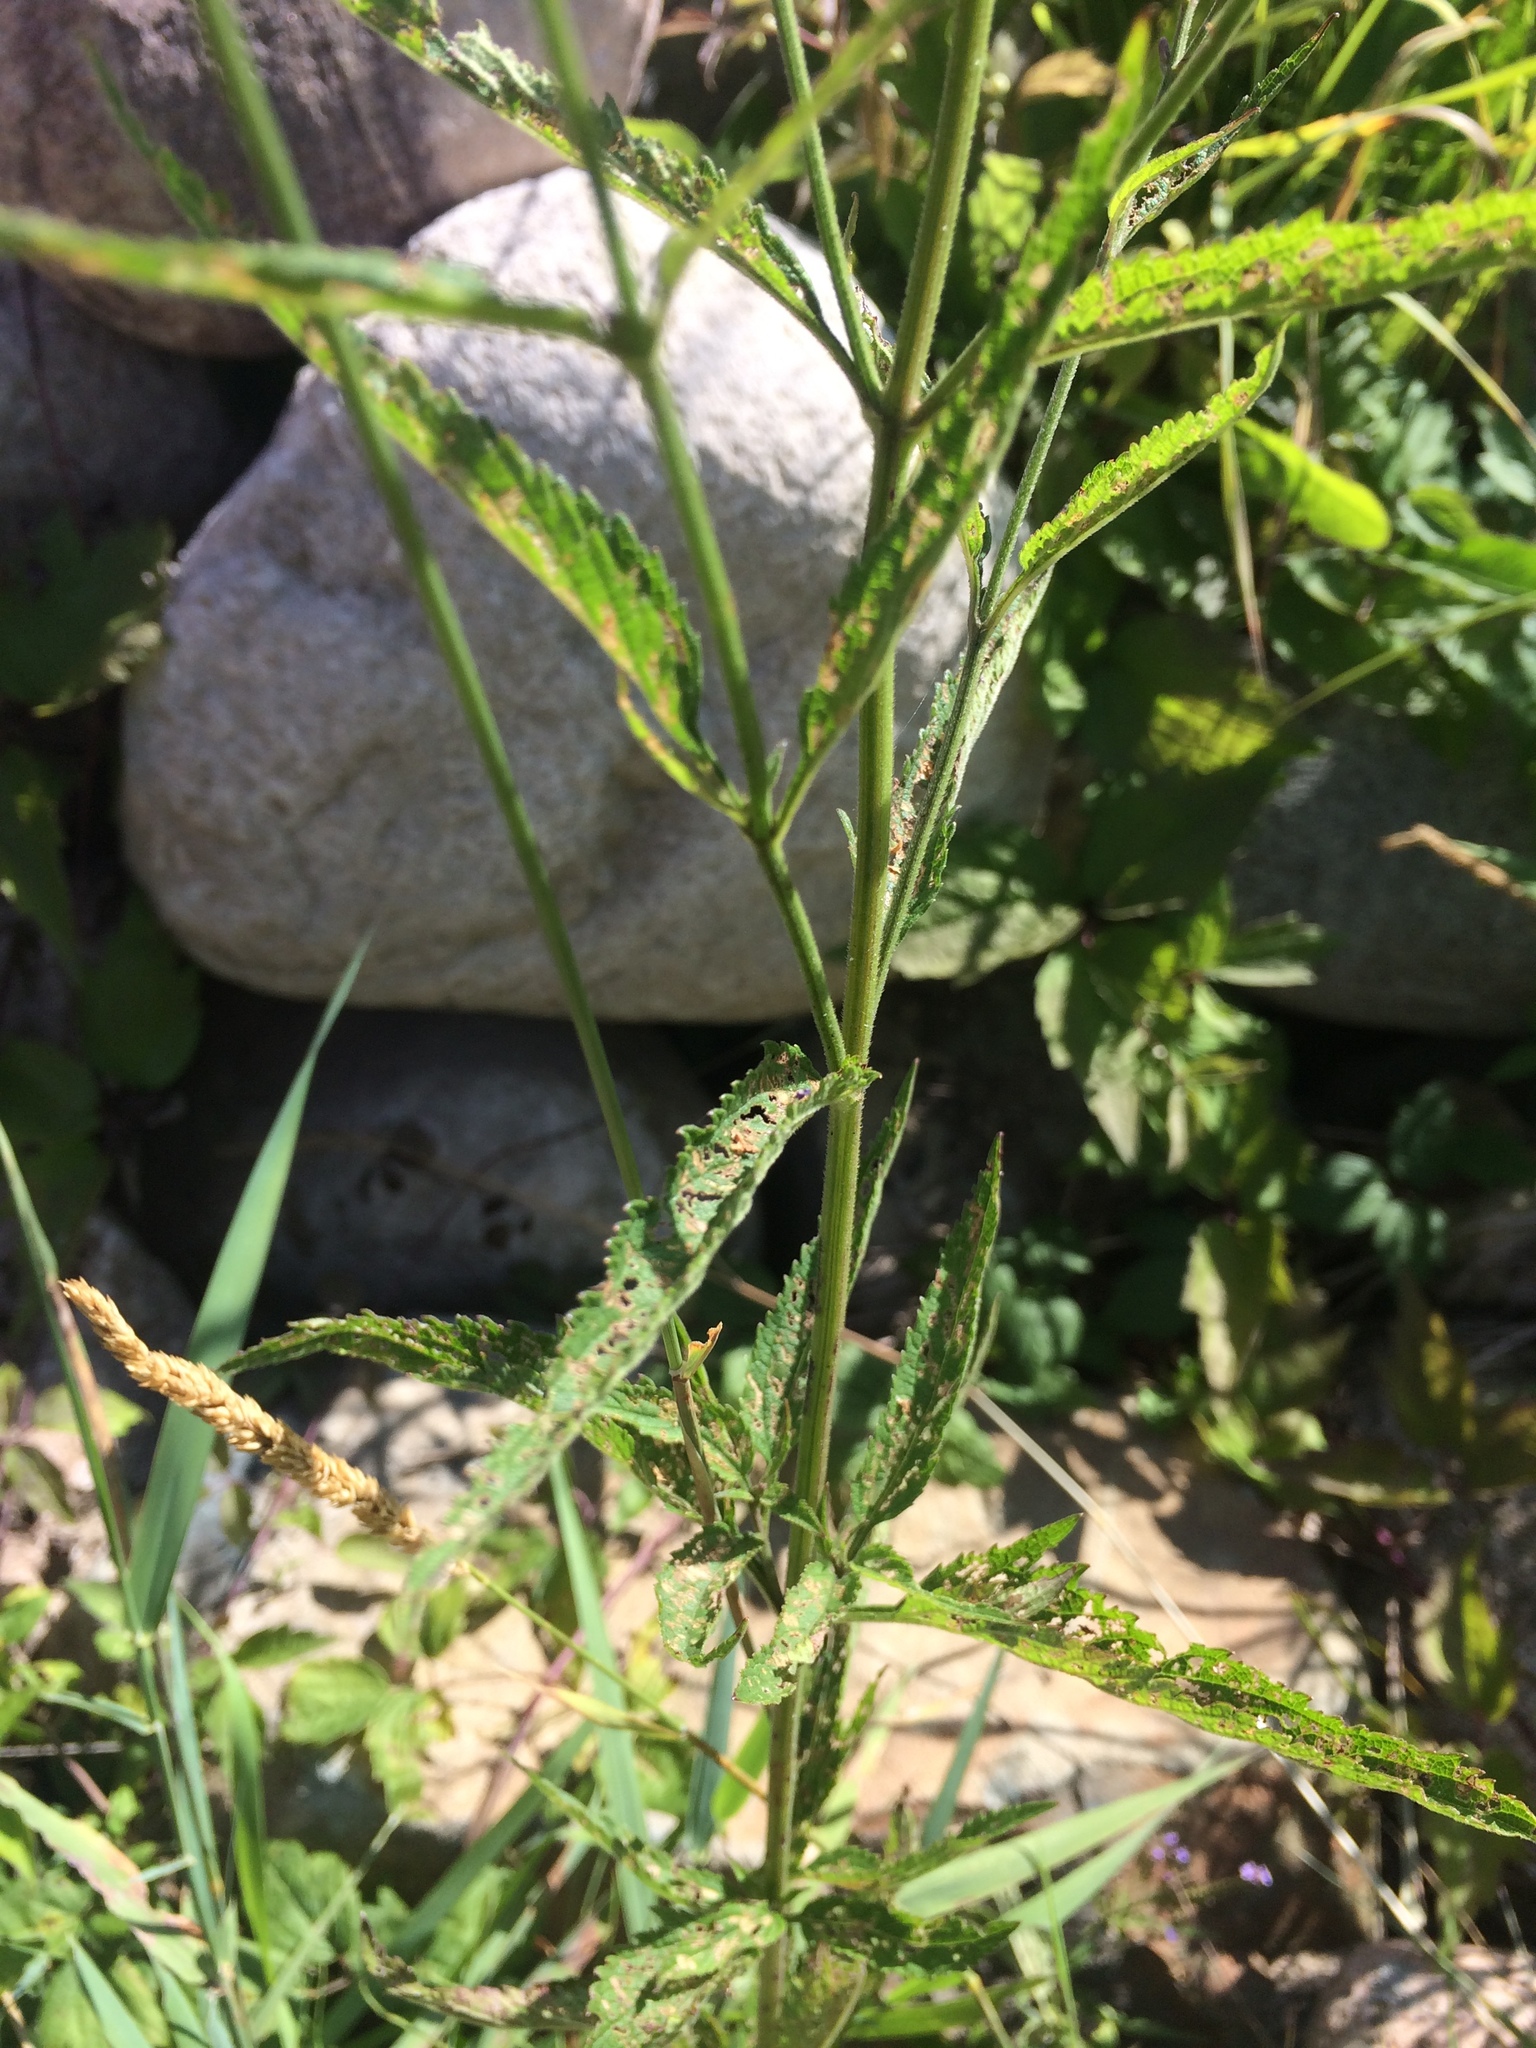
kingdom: Plantae
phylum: Tracheophyta
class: Magnoliopsida
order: Lamiales
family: Verbenaceae
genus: Verbena
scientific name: Verbena hastata
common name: American blue vervain
